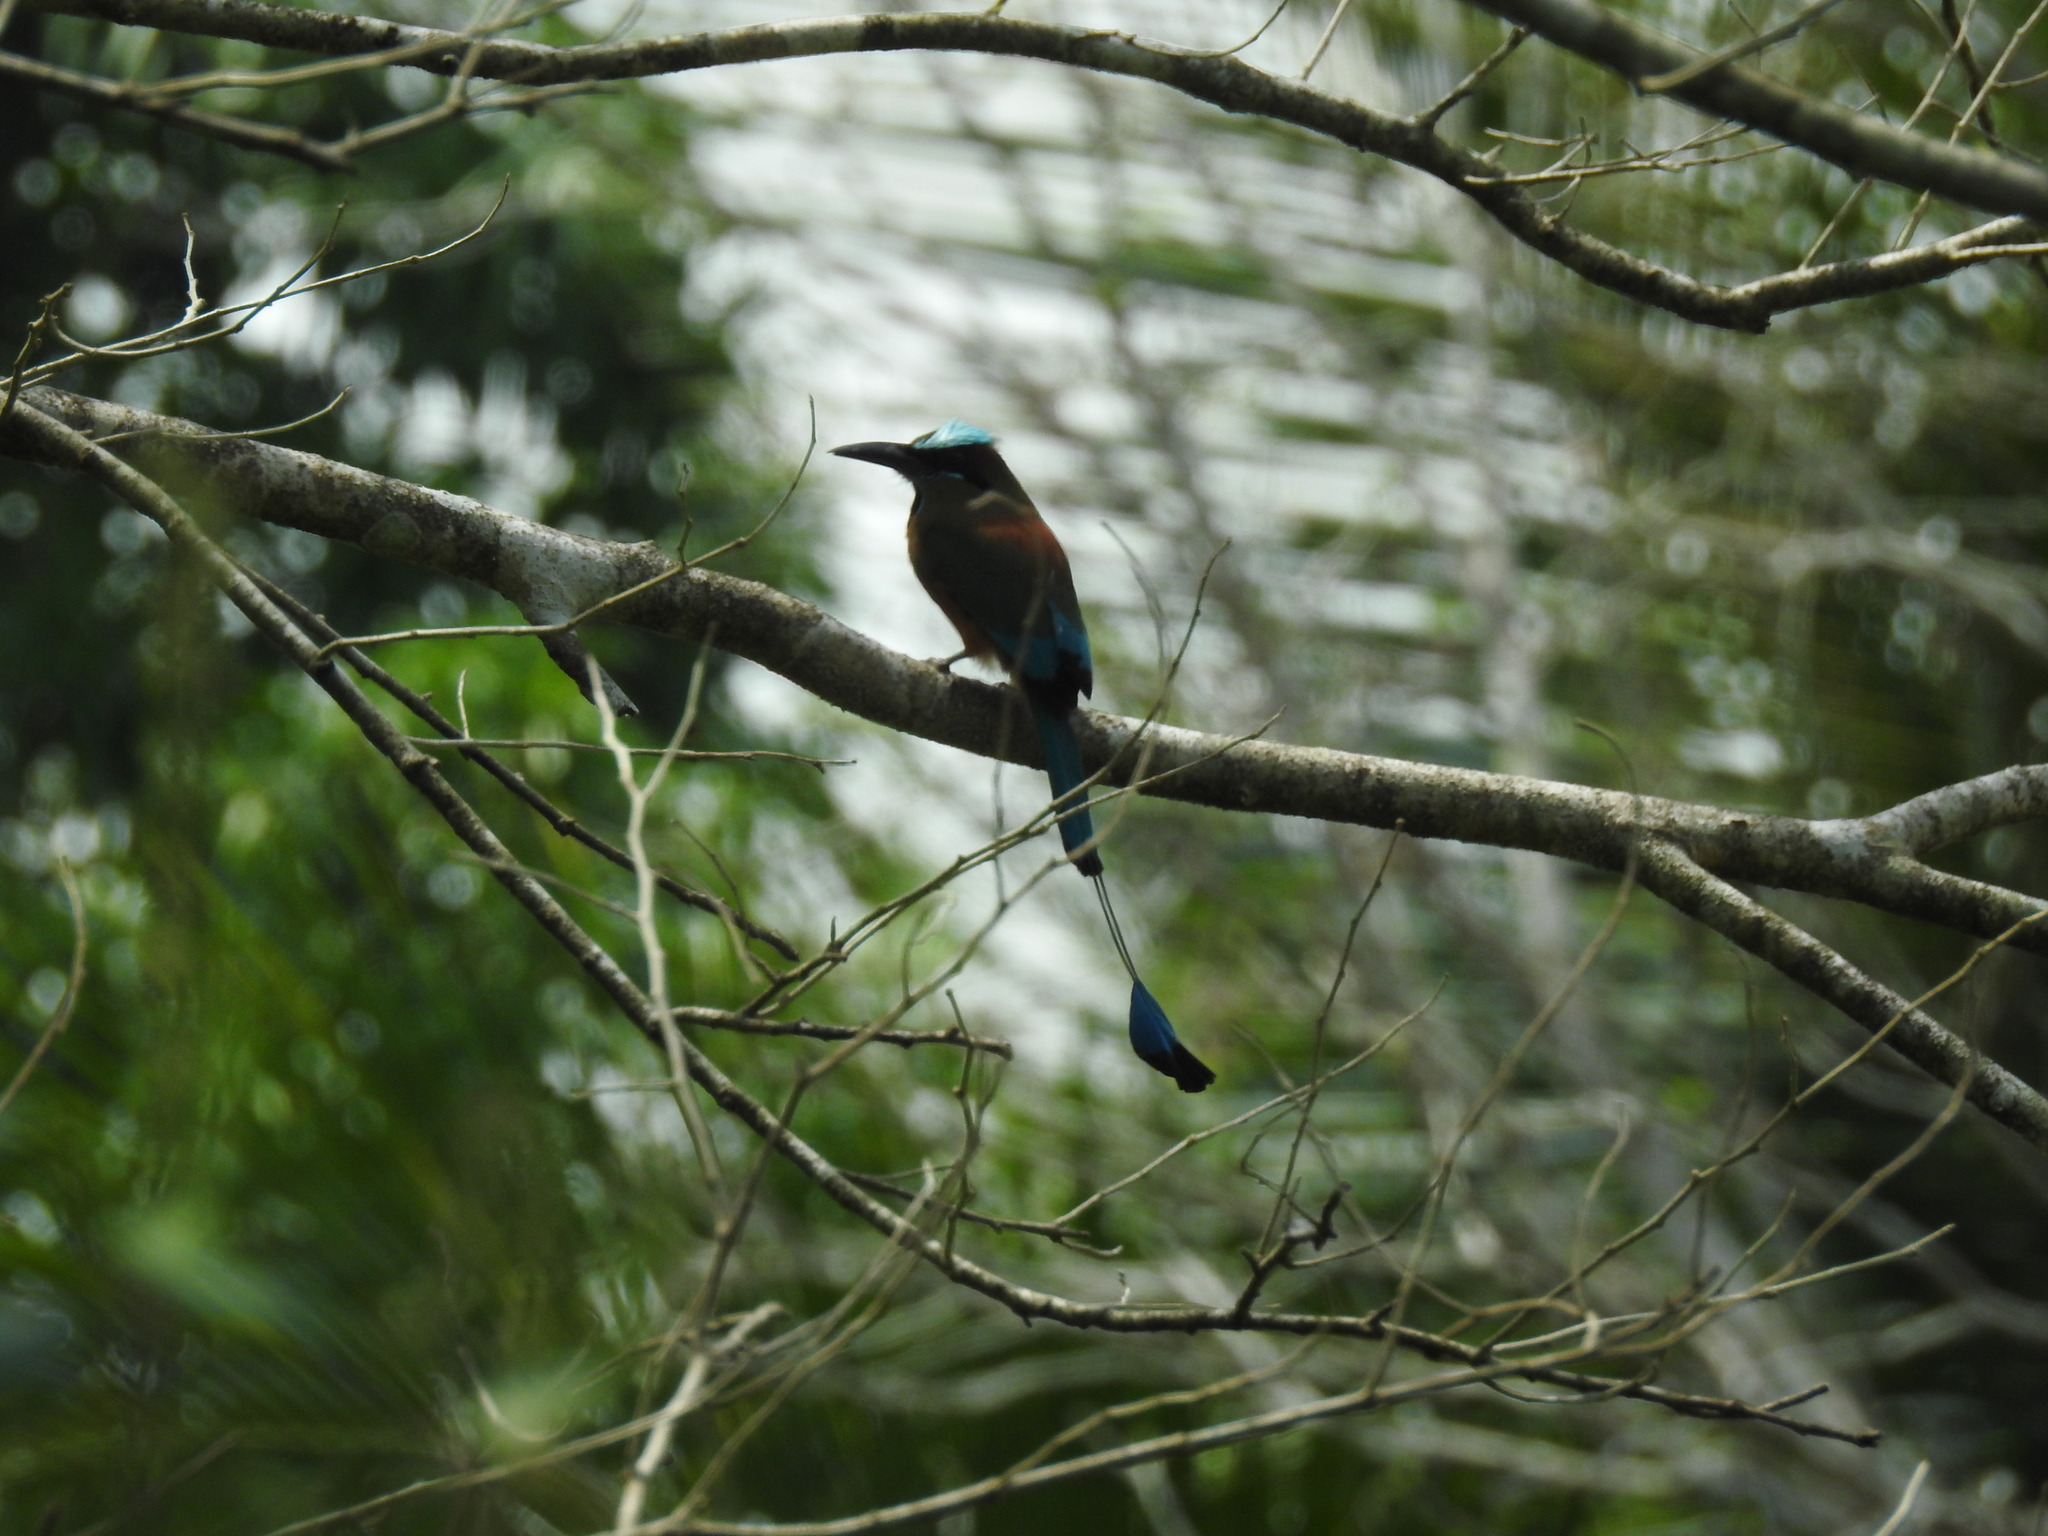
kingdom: Animalia
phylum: Chordata
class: Aves
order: Coraciiformes
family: Momotidae
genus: Eumomota
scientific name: Eumomota superciliosa
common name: Turquoise-browed motmot
